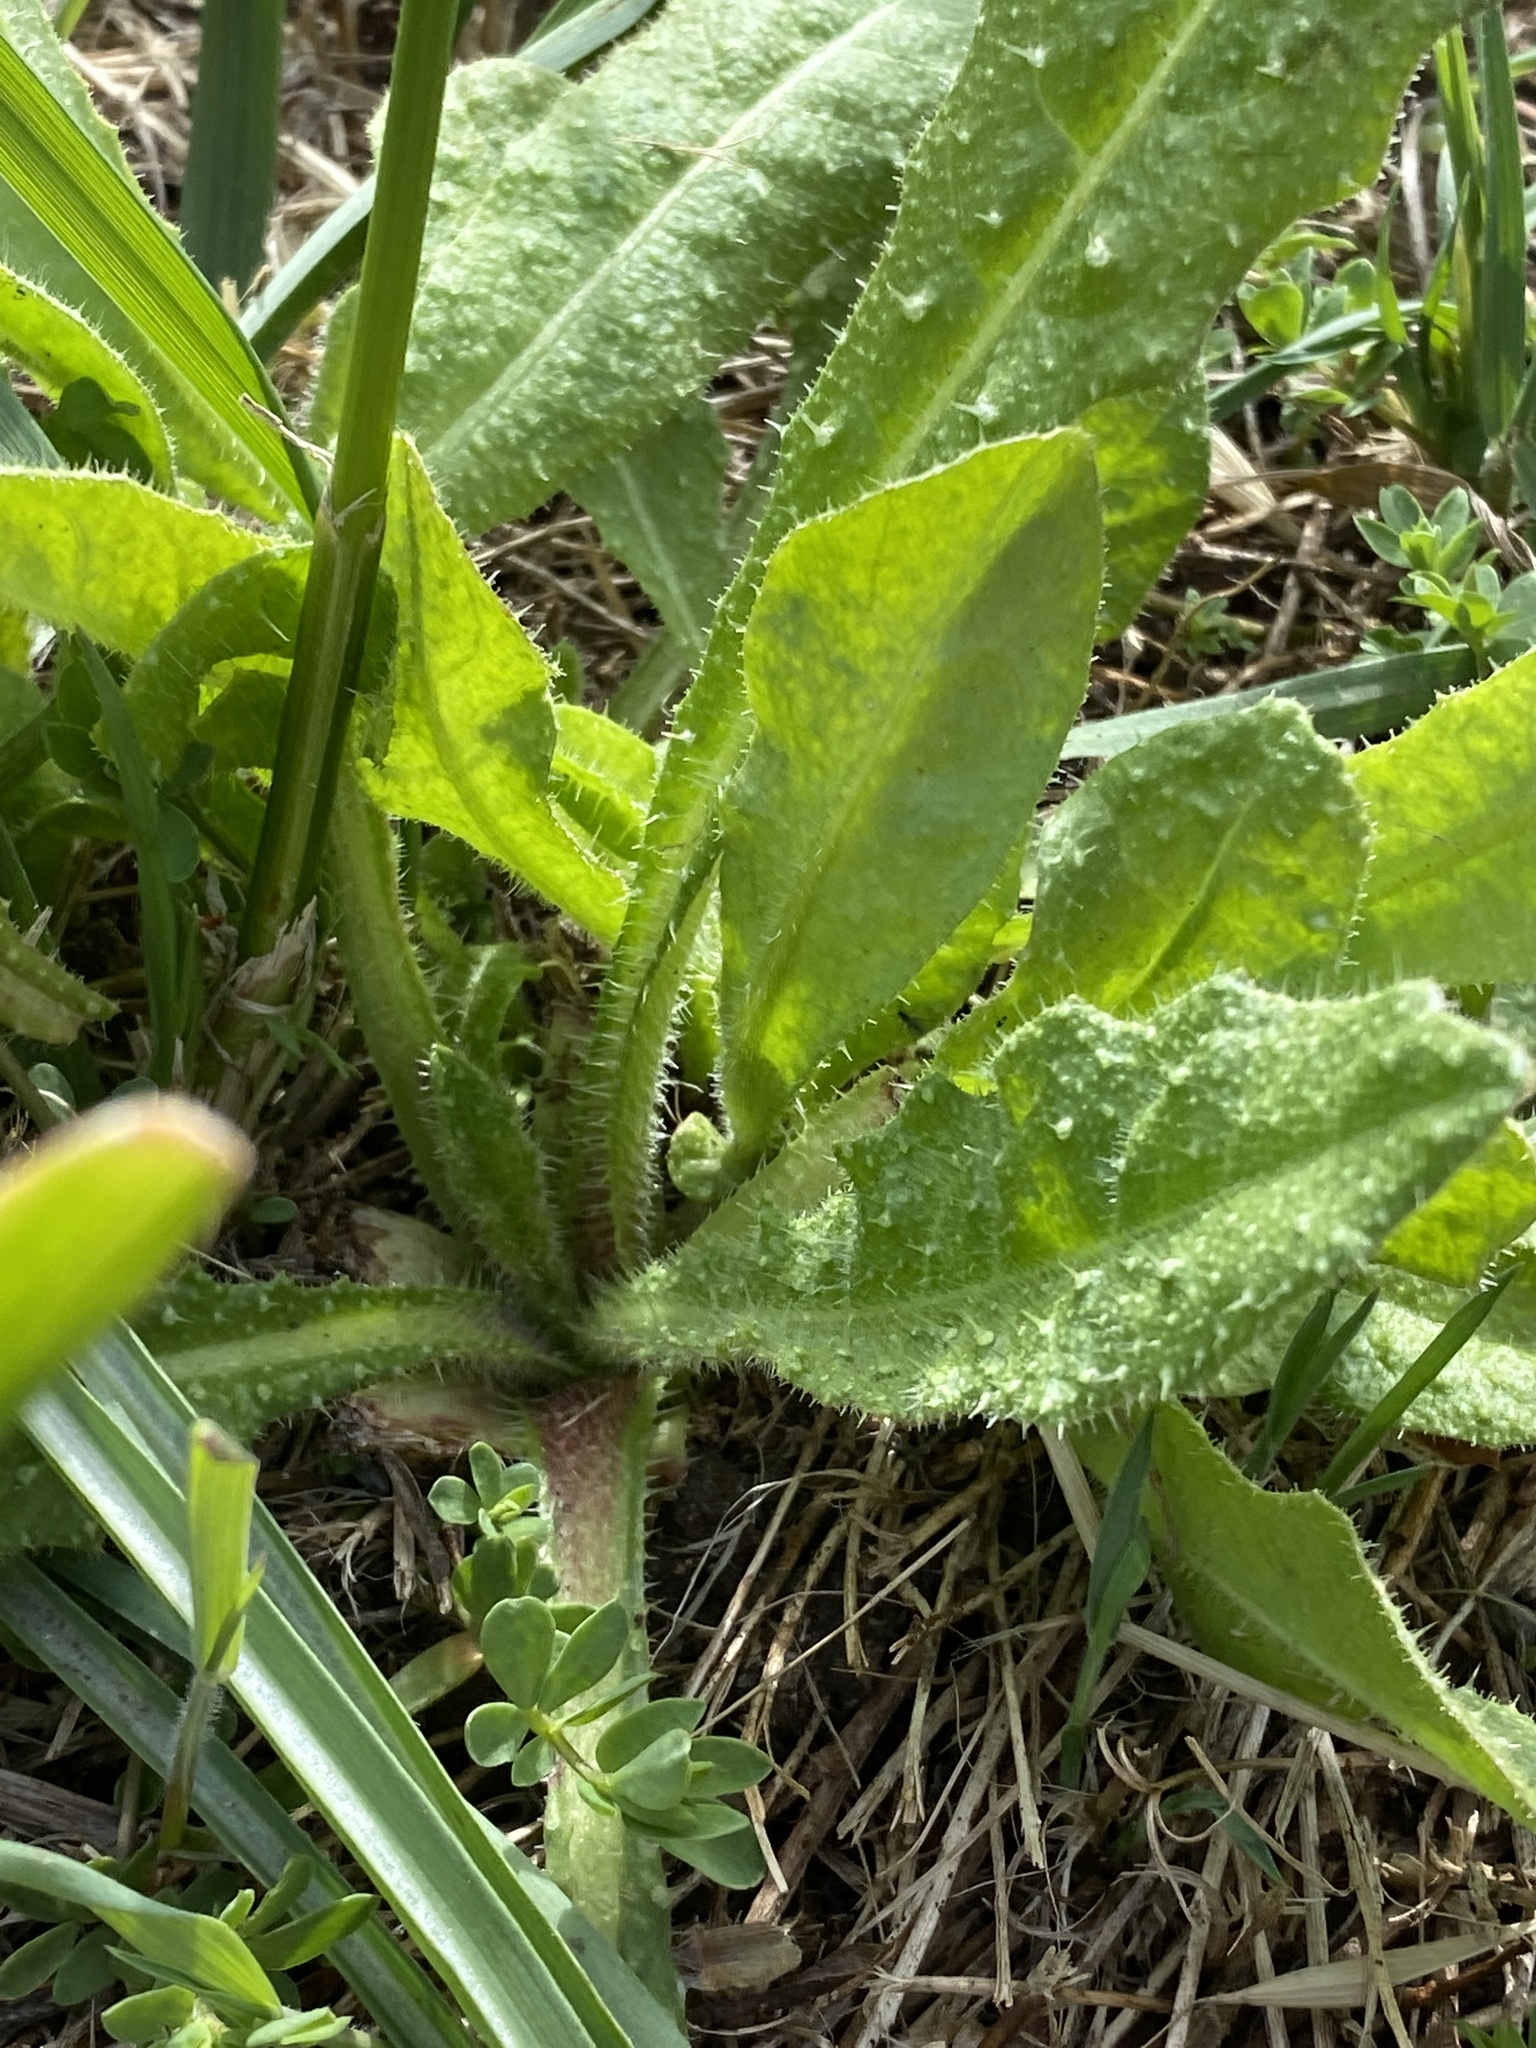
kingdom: Plantae
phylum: Tracheophyta
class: Magnoliopsida
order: Asterales
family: Asteraceae
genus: Helminthotheca
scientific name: Helminthotheca echioides
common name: Ox-tongue
